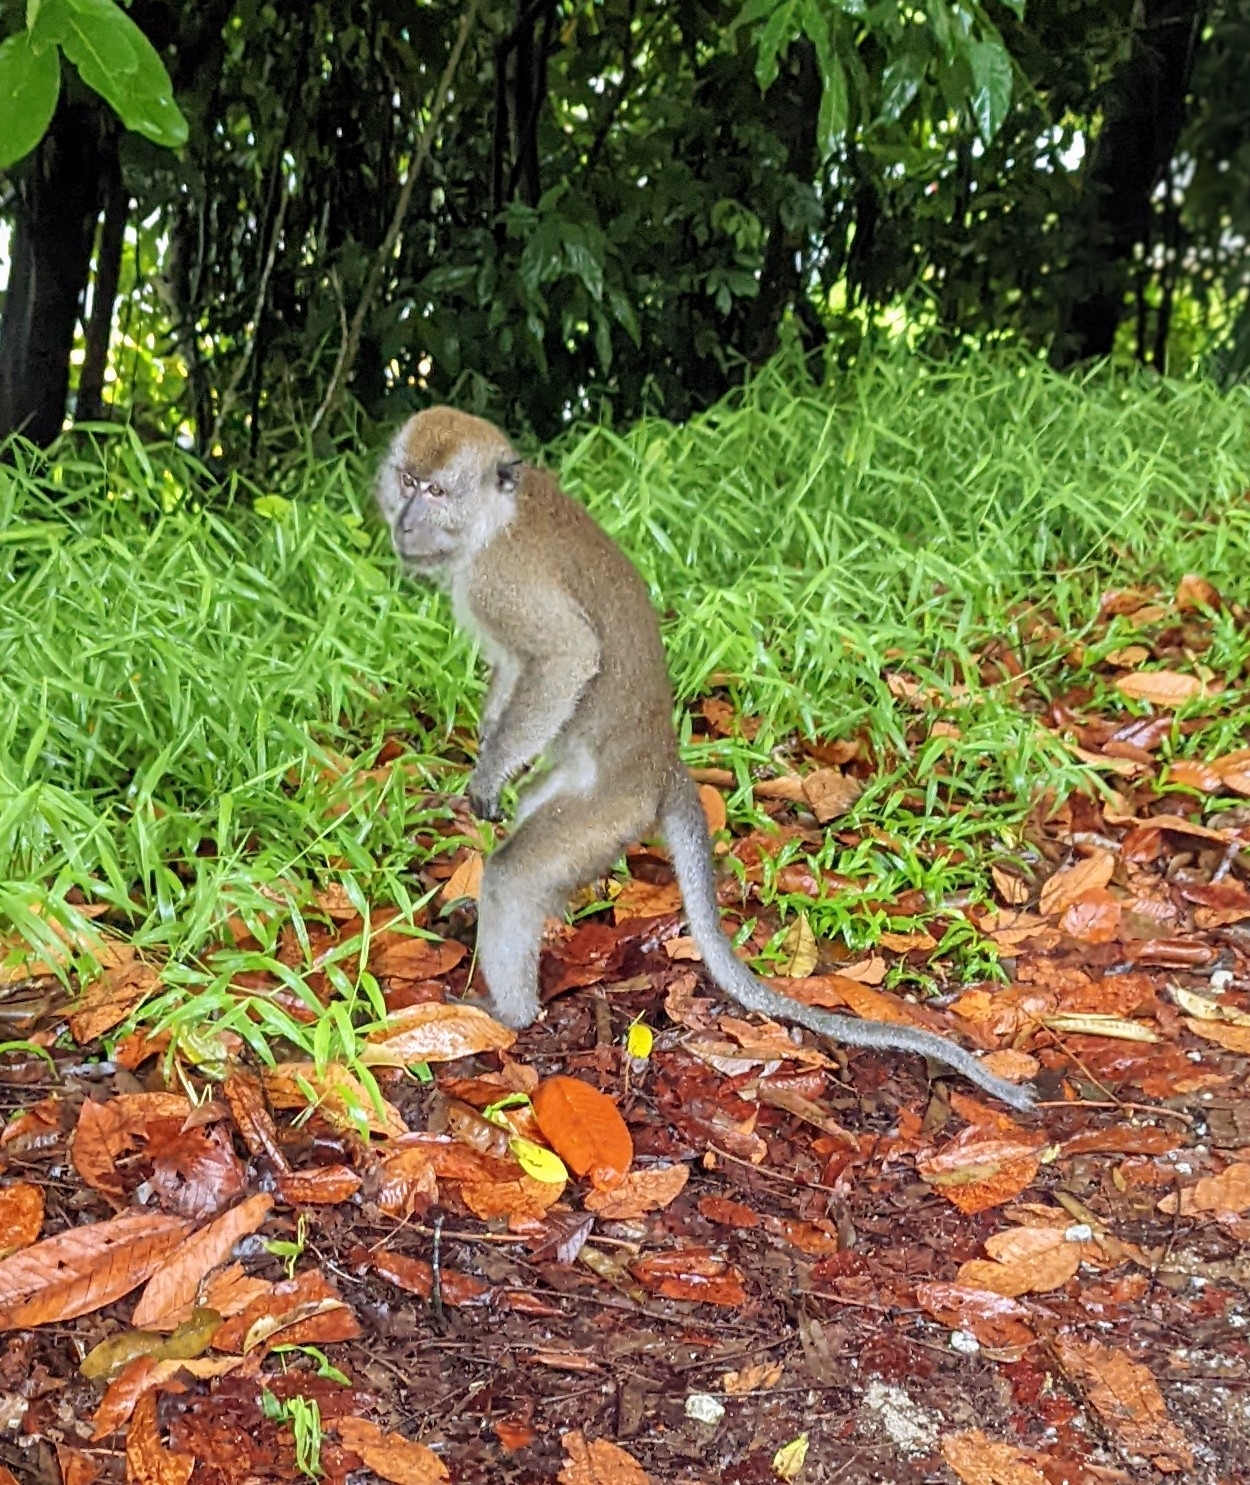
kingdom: Animalia
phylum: Chordata
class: Mammalia
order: Primates
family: Cercopithecidae
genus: Macaca
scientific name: Macaca fascicularis
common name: Crab-eating macaque
